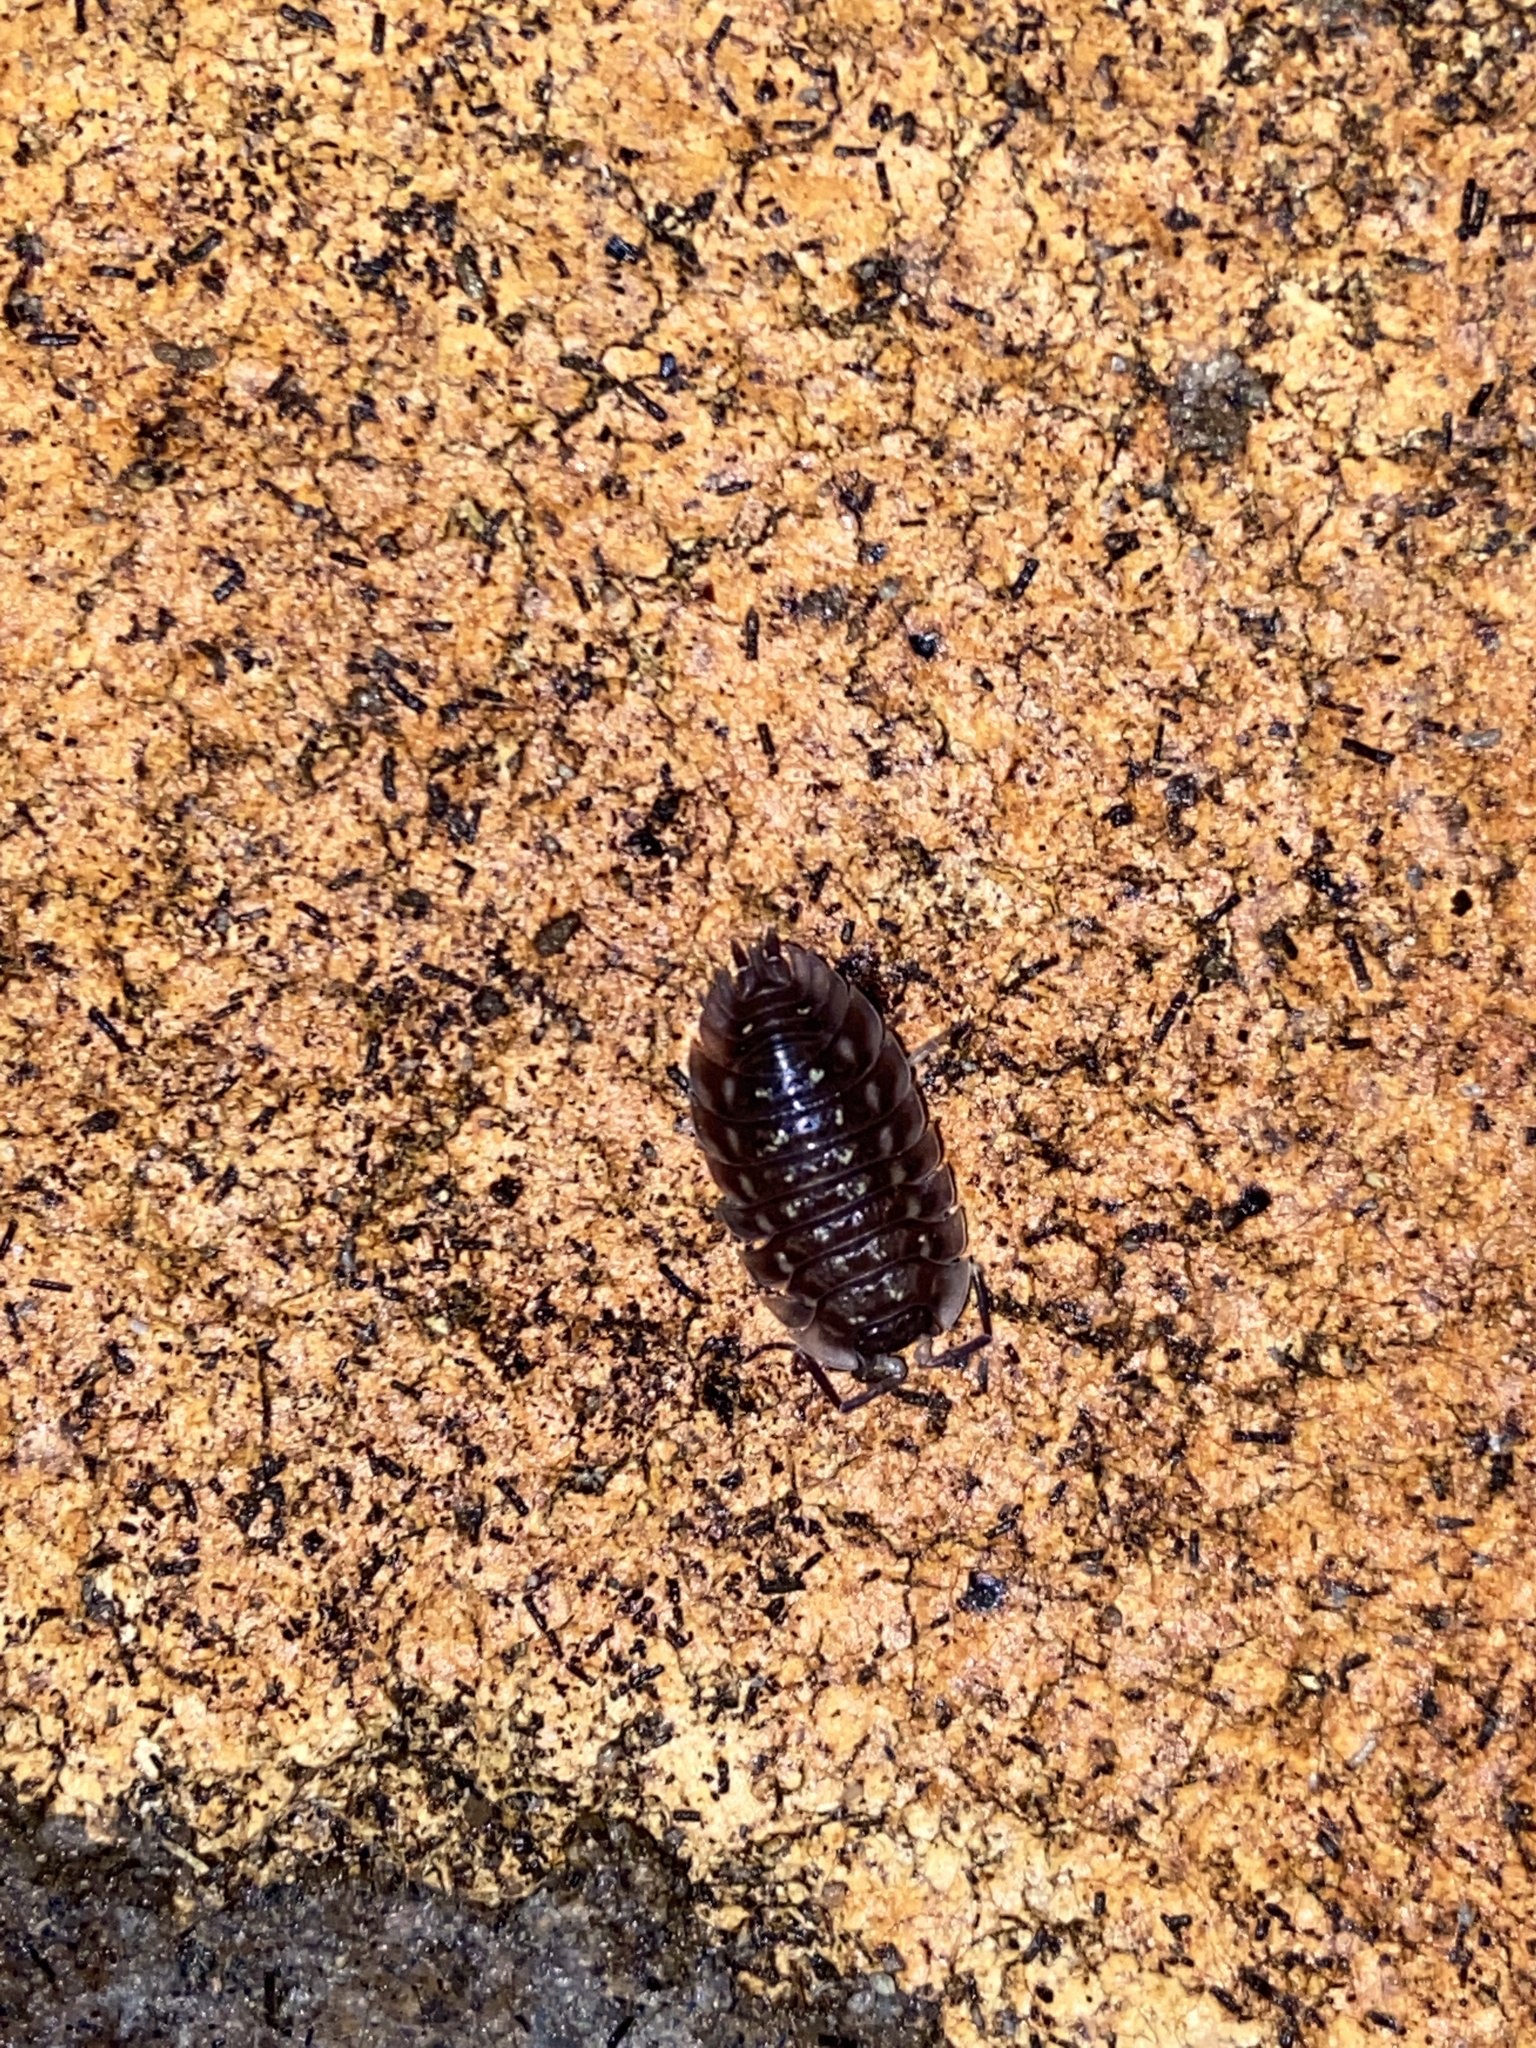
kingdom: Animalia
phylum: Arthropoda
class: Malacostraca
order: Isopoda
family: Oniscidae
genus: Oniscus
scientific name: Oniscus asellus
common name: Common shiny woodlouse
